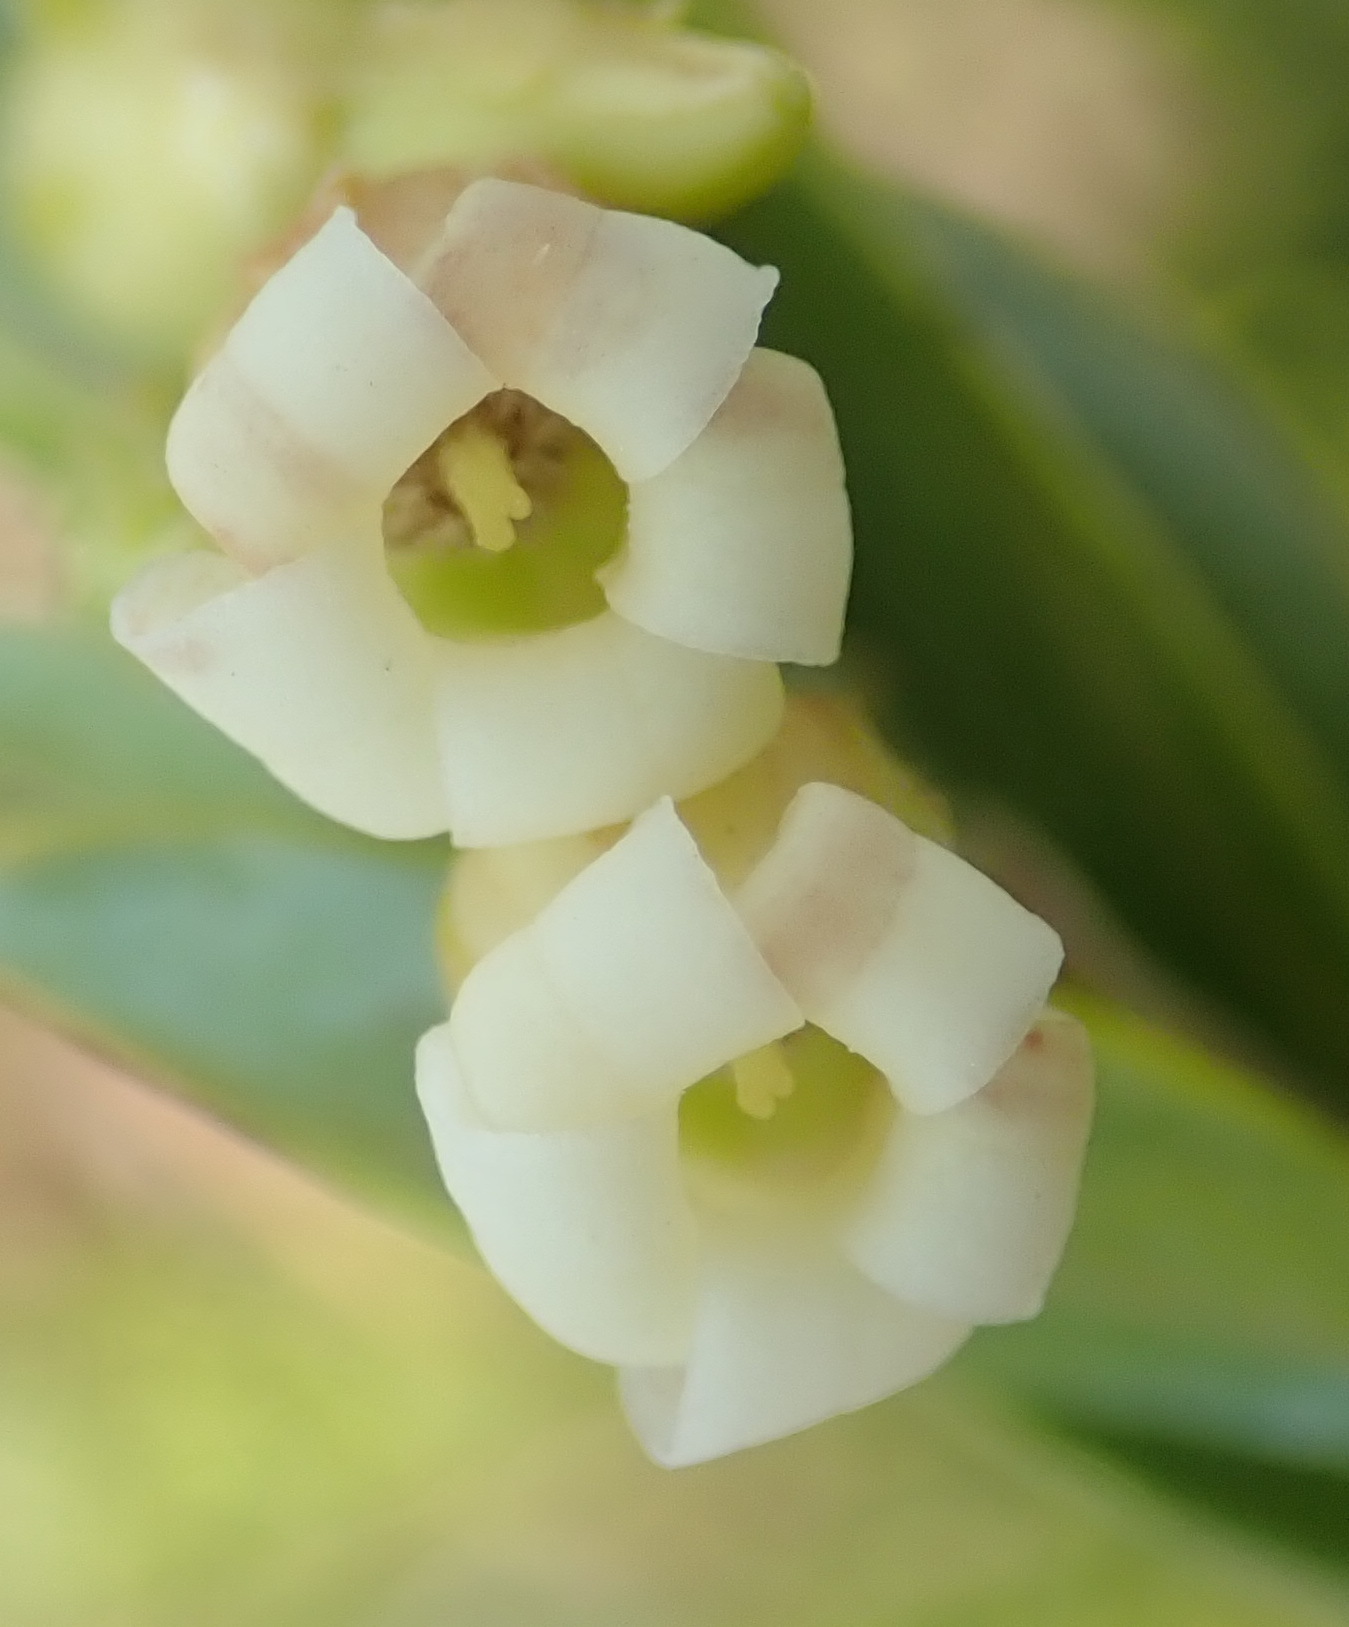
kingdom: Plantae
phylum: Tracheophyta
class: Magnoliopsida
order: Ericales
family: Ebenaceae
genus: Diospyros
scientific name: Diospyros glabra
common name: Fynbos star apple
